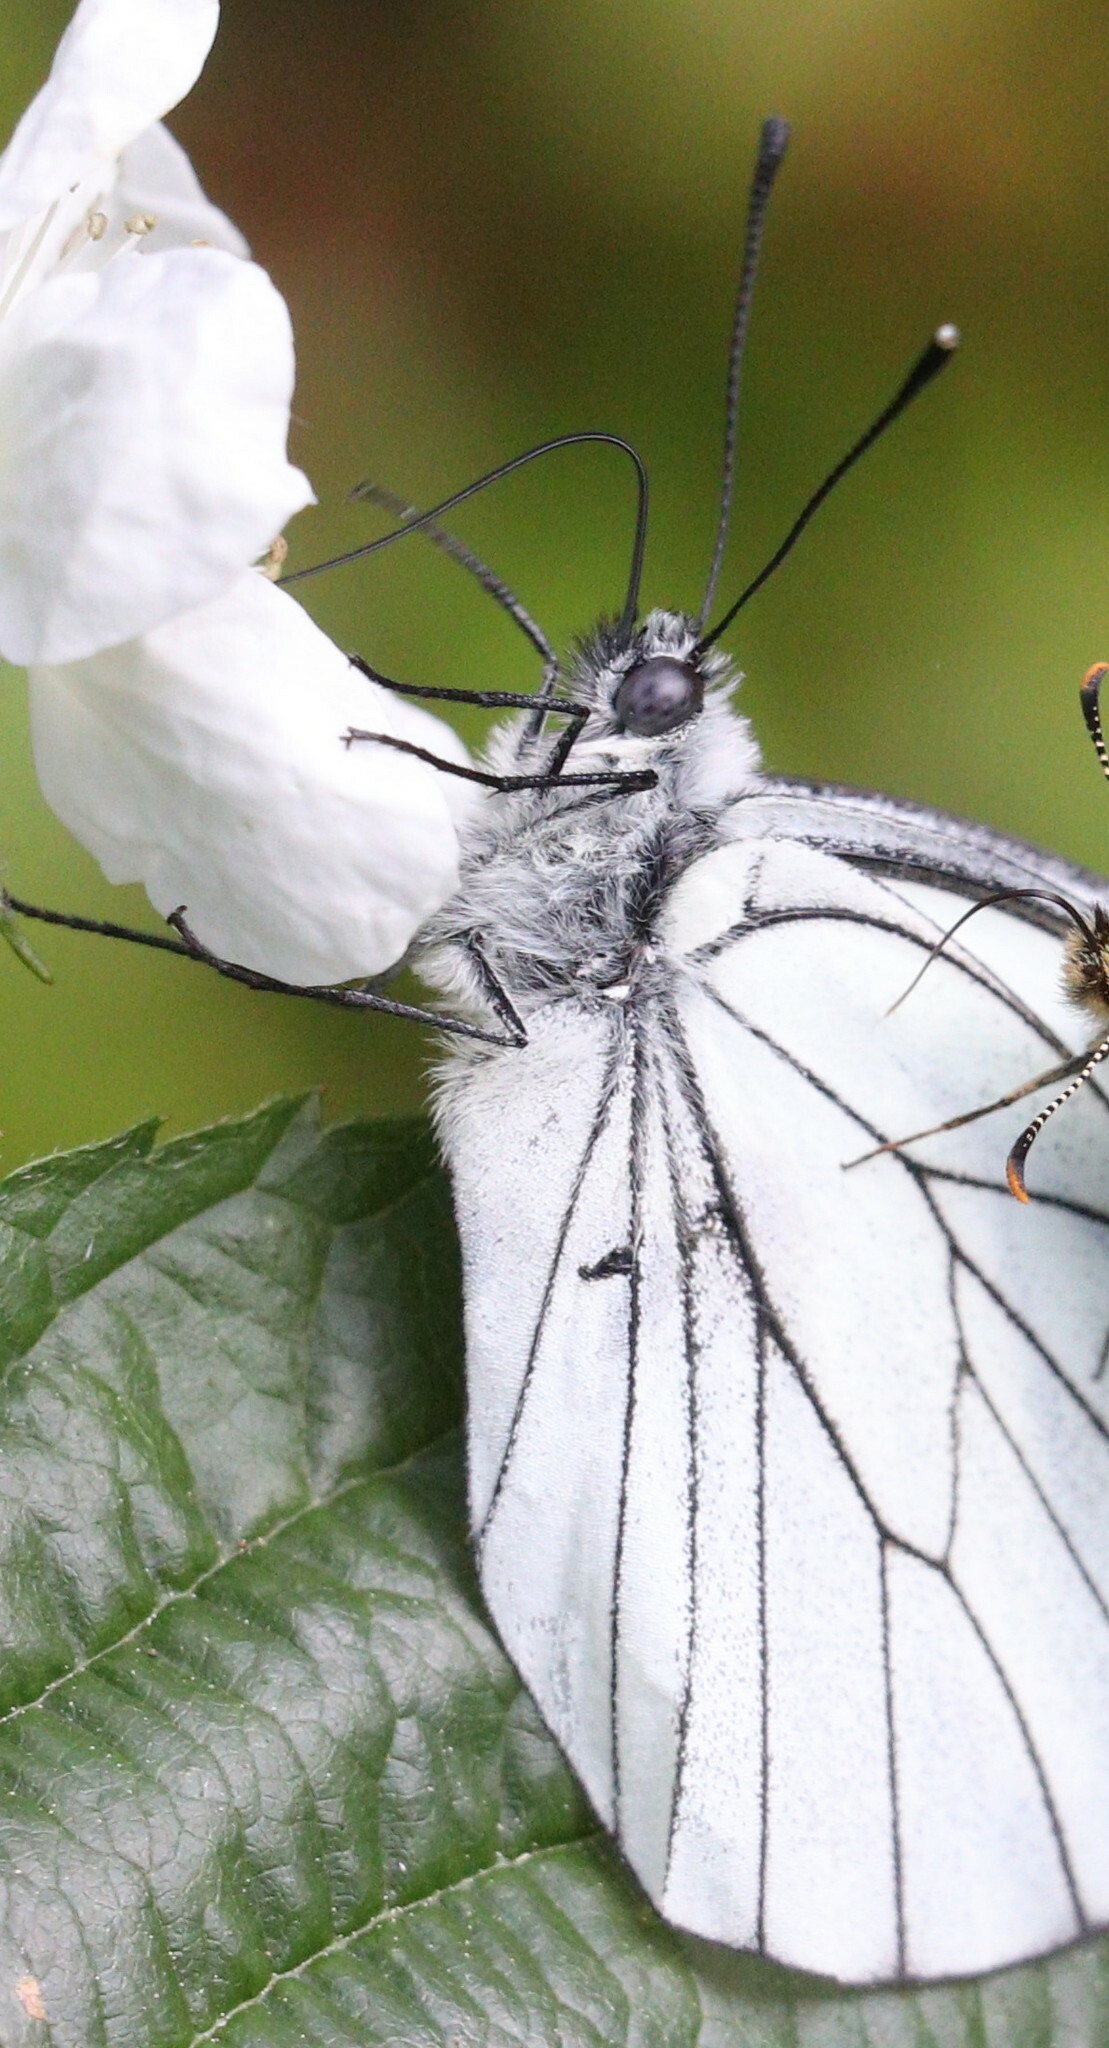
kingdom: Animalia
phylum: Arthropoda
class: Insecta
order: Lepidoptera
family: Pieridae
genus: Aporia
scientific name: Aporia crataegi
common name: Black-veined white
